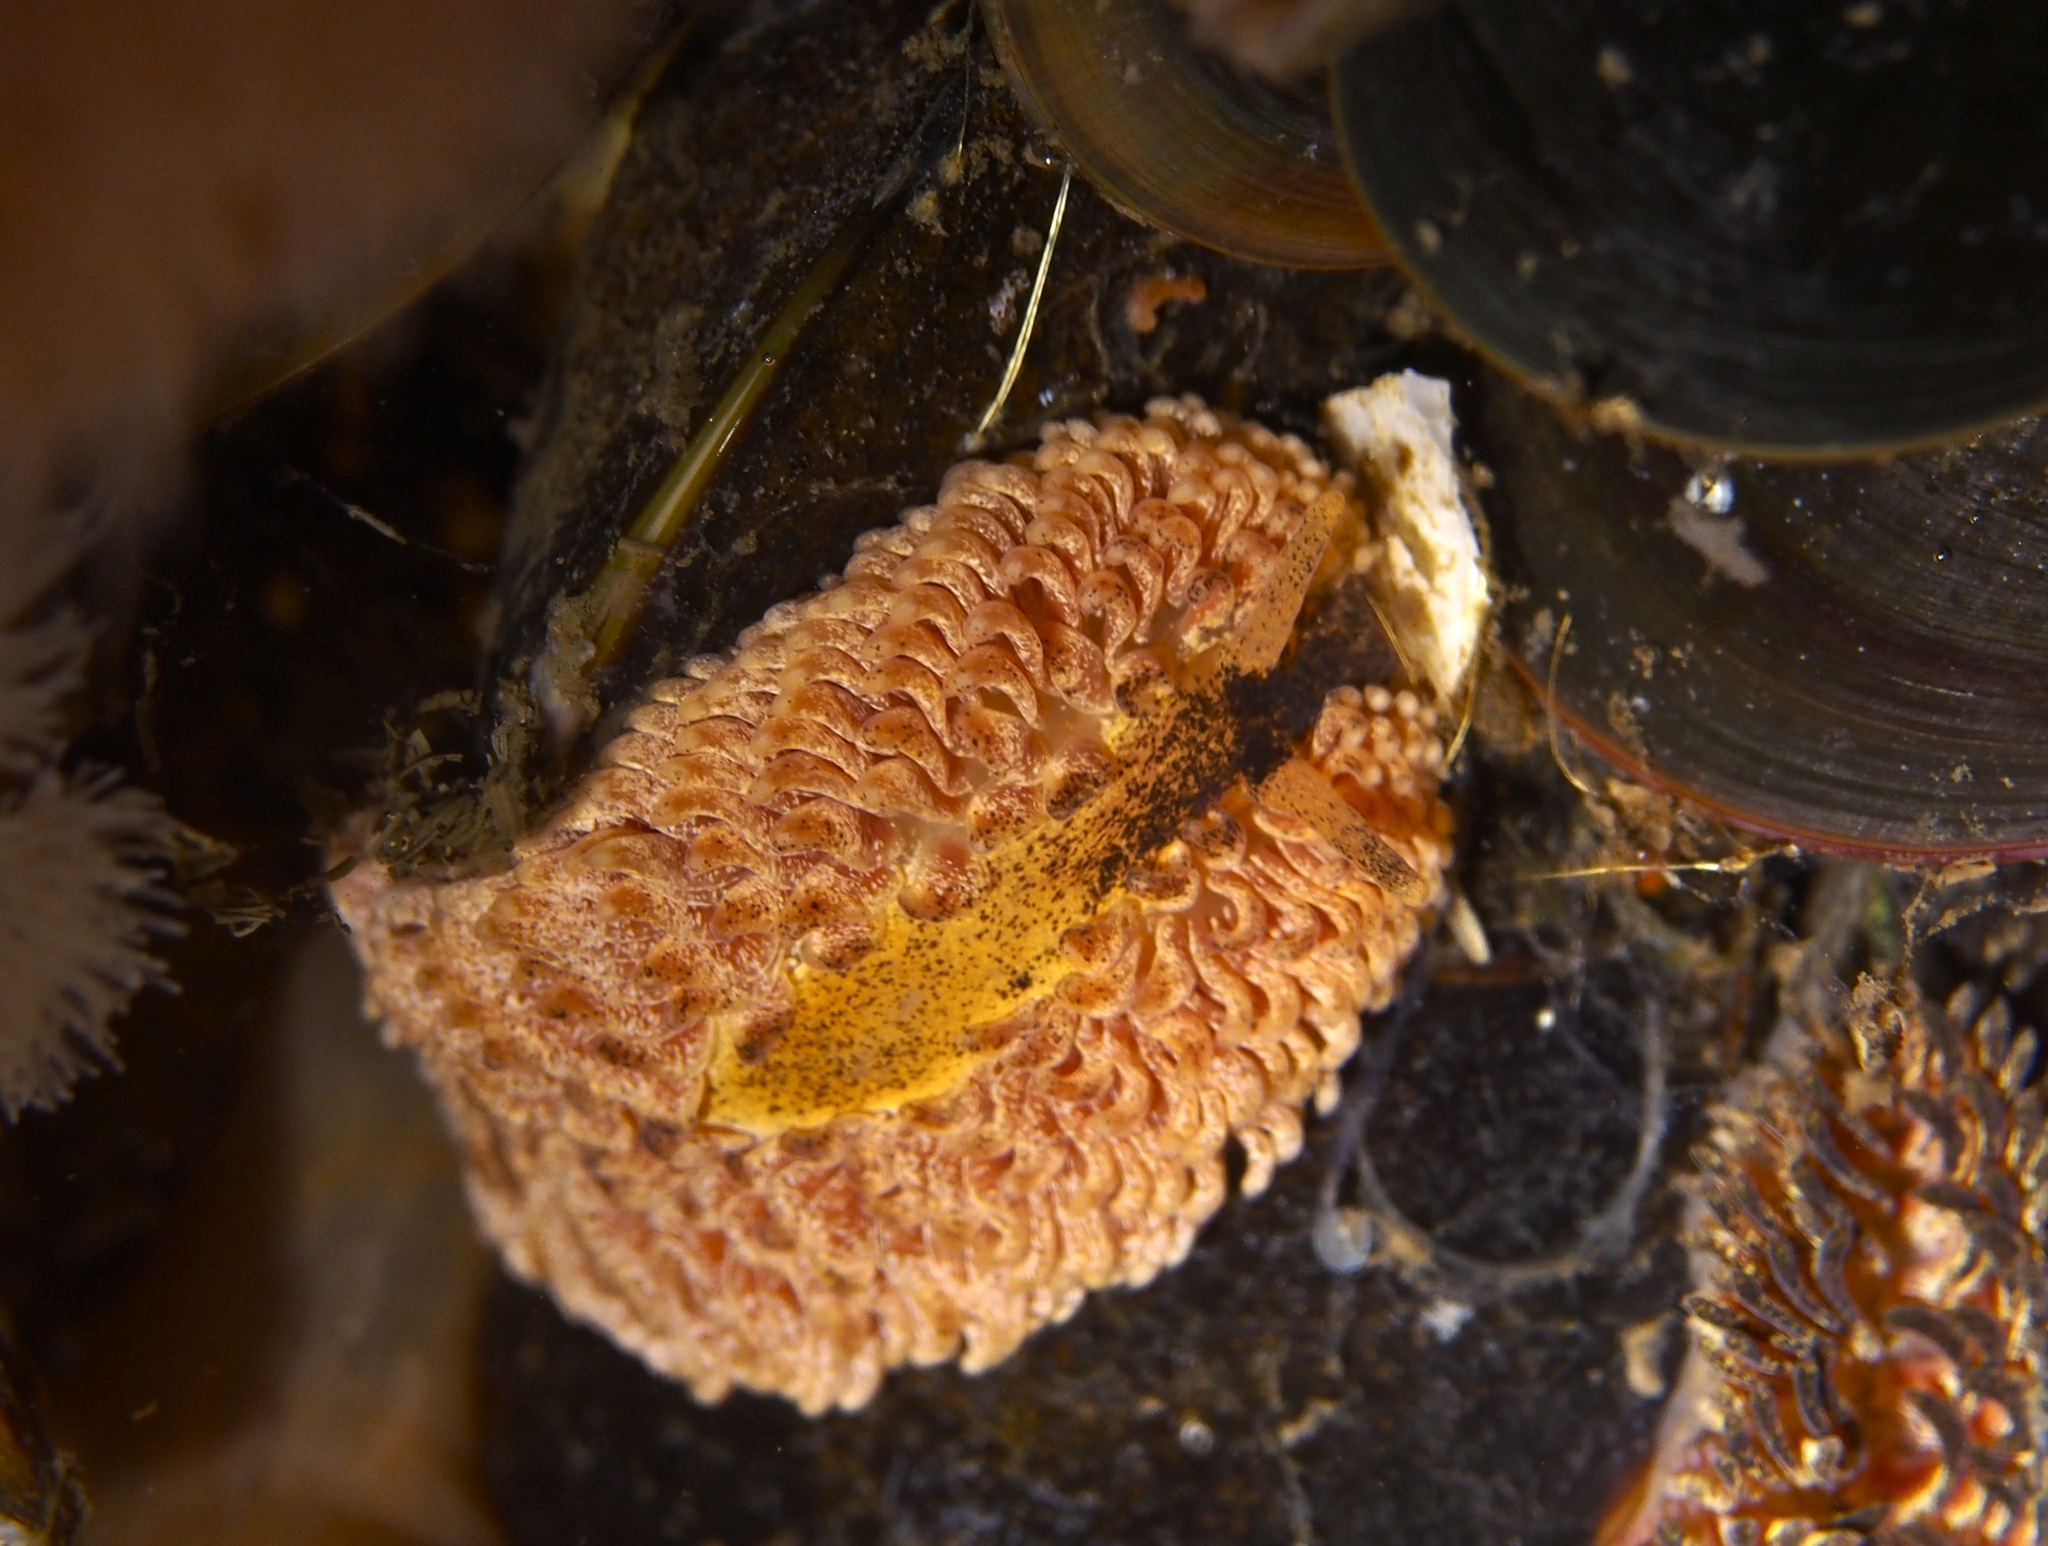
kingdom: Animalia
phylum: Mollusca
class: Gastropoda
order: Nudibranchia
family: Aeolidiidae
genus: Aeolidia
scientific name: Aeolidia papillosa
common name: Common grey sea slug
